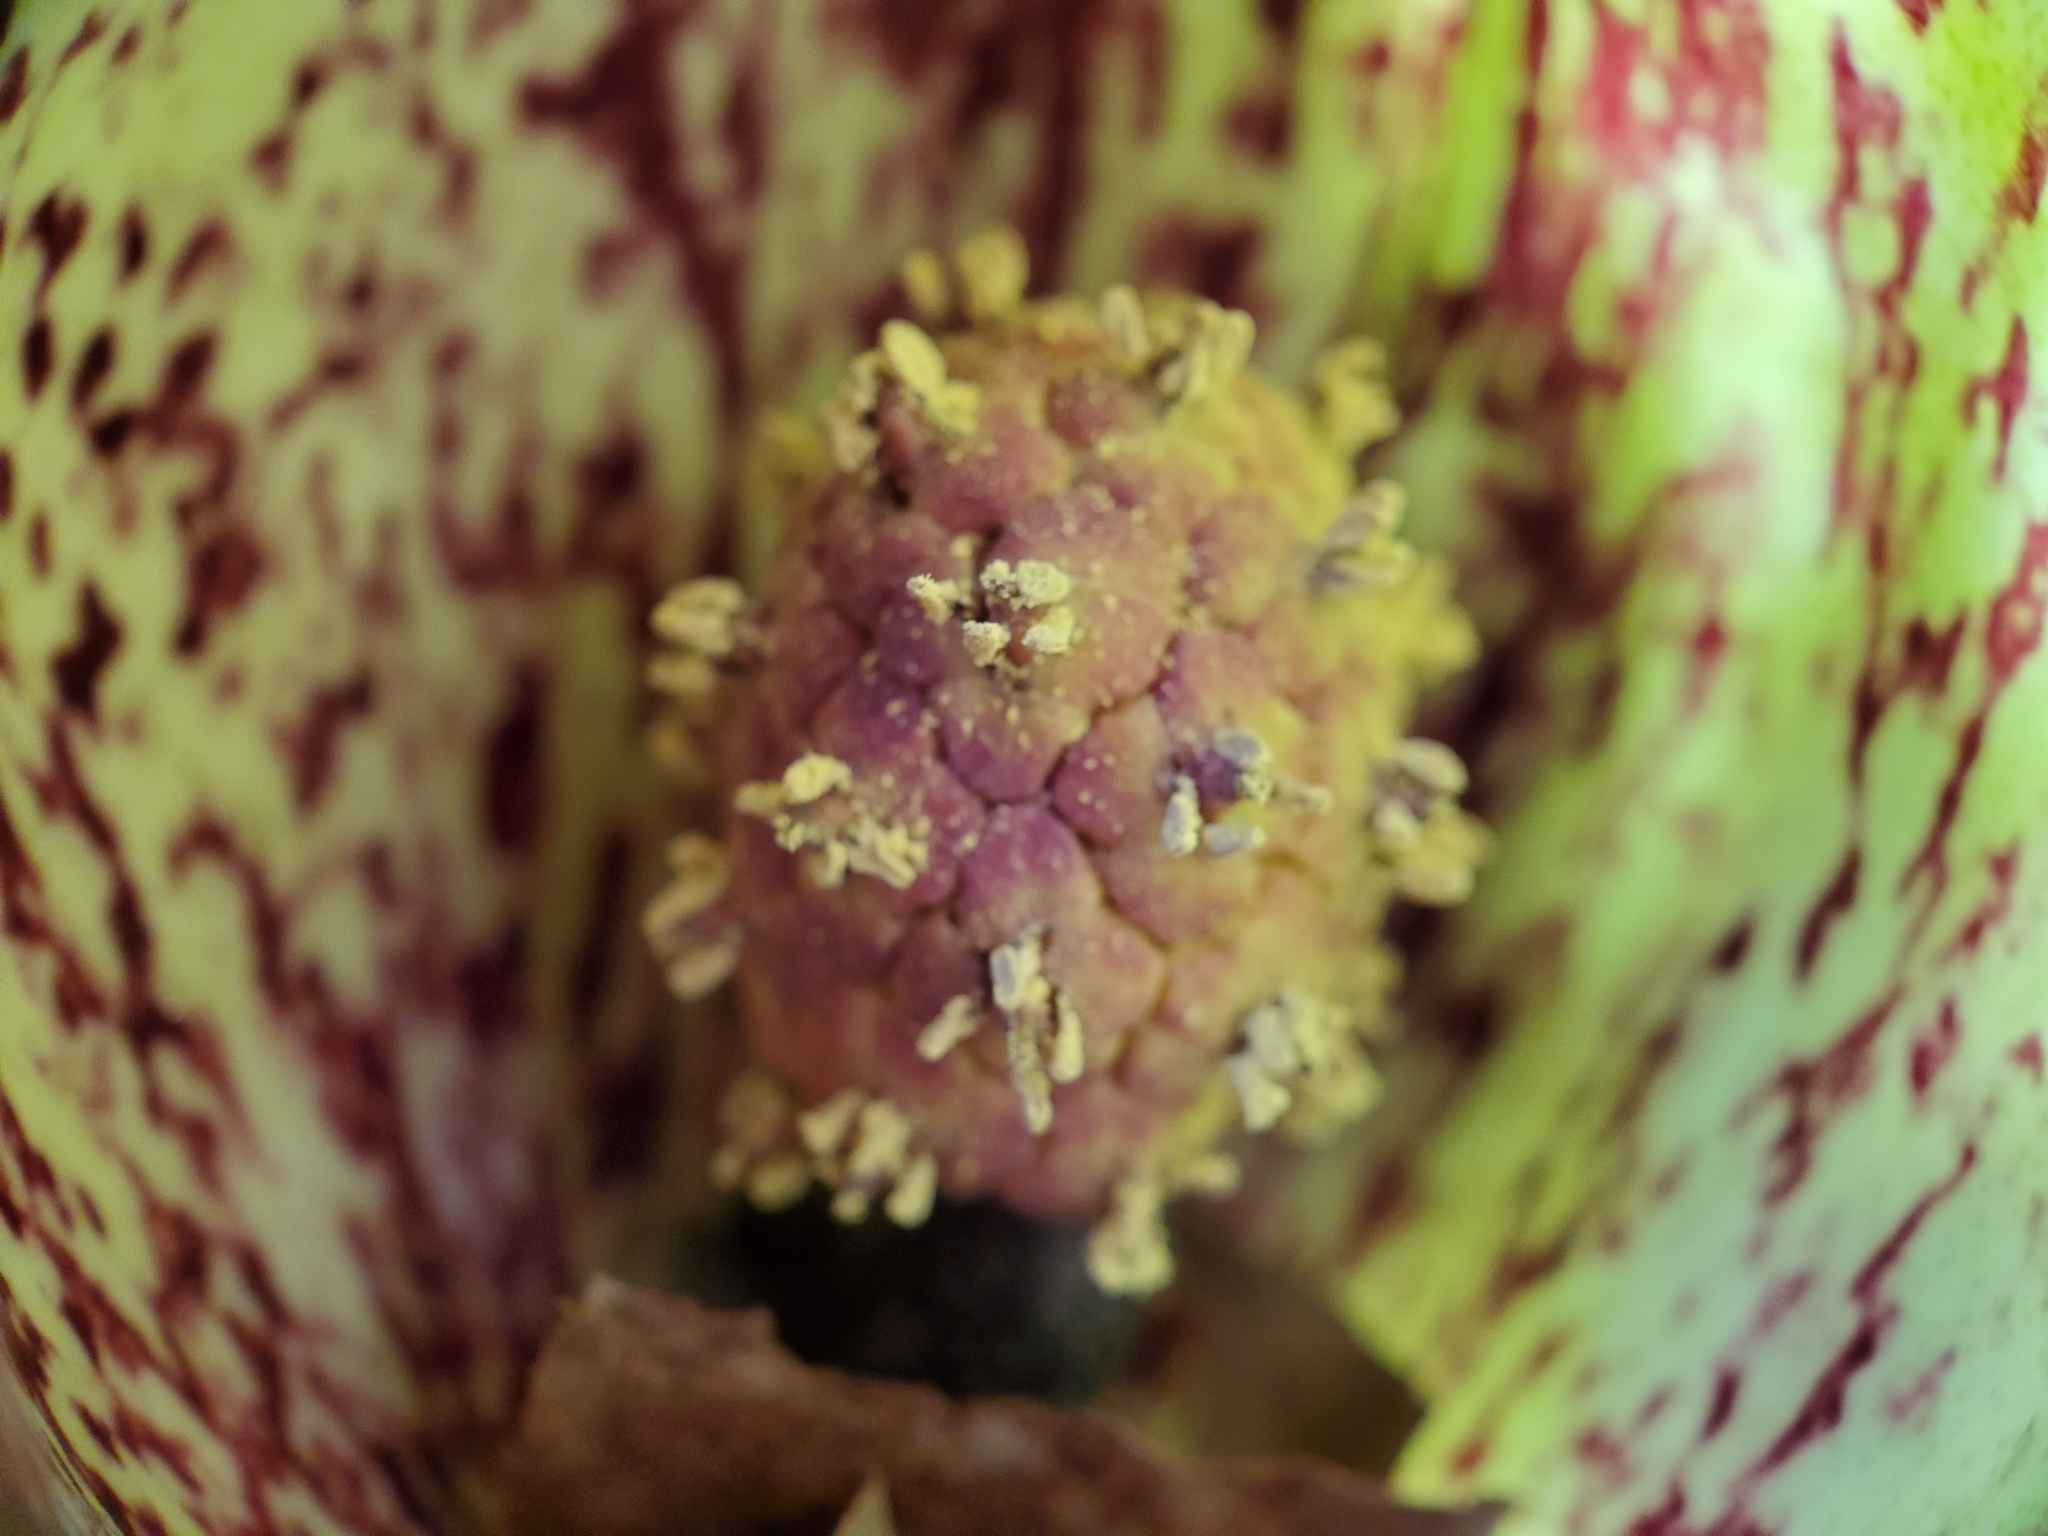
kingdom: Plantae
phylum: Tracheophyta
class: Liliopsida
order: Alismatales
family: Araceae
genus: Symplocarpus
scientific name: Symplocarpus foetidus
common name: Eastern skunk cabbage
